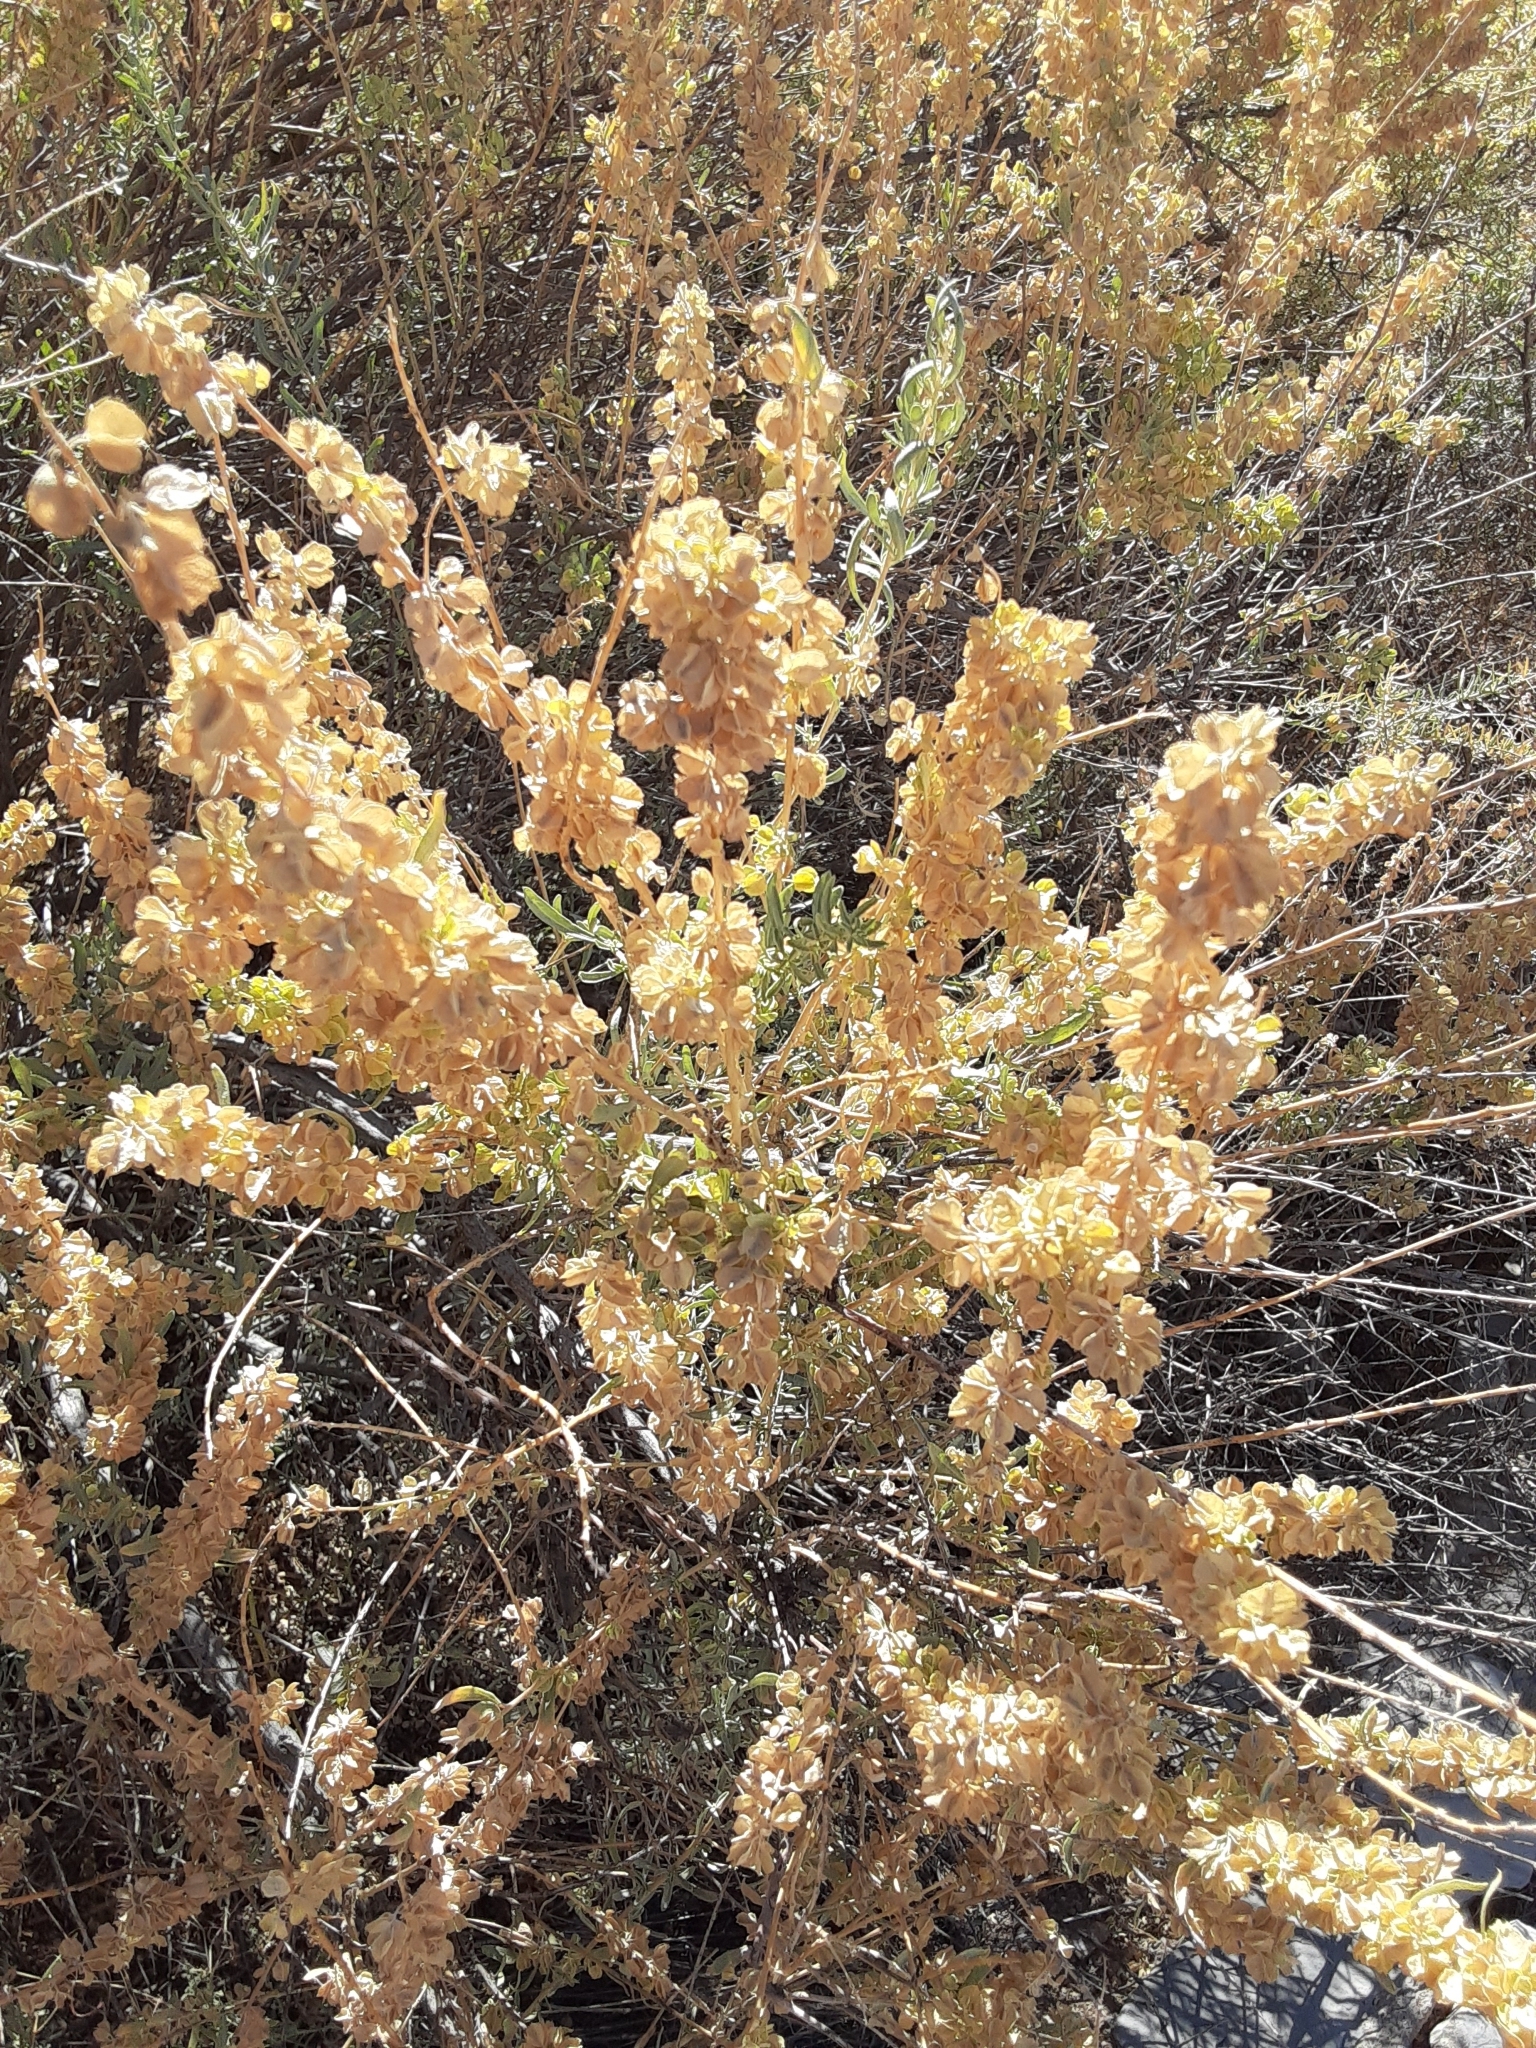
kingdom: Plantae
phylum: Tracheophyta
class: Magnoliopsida
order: Caryophyllales
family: Amaranthaceae
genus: Atriplex
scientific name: Atriplex canescens
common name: Four-wing saltbush
